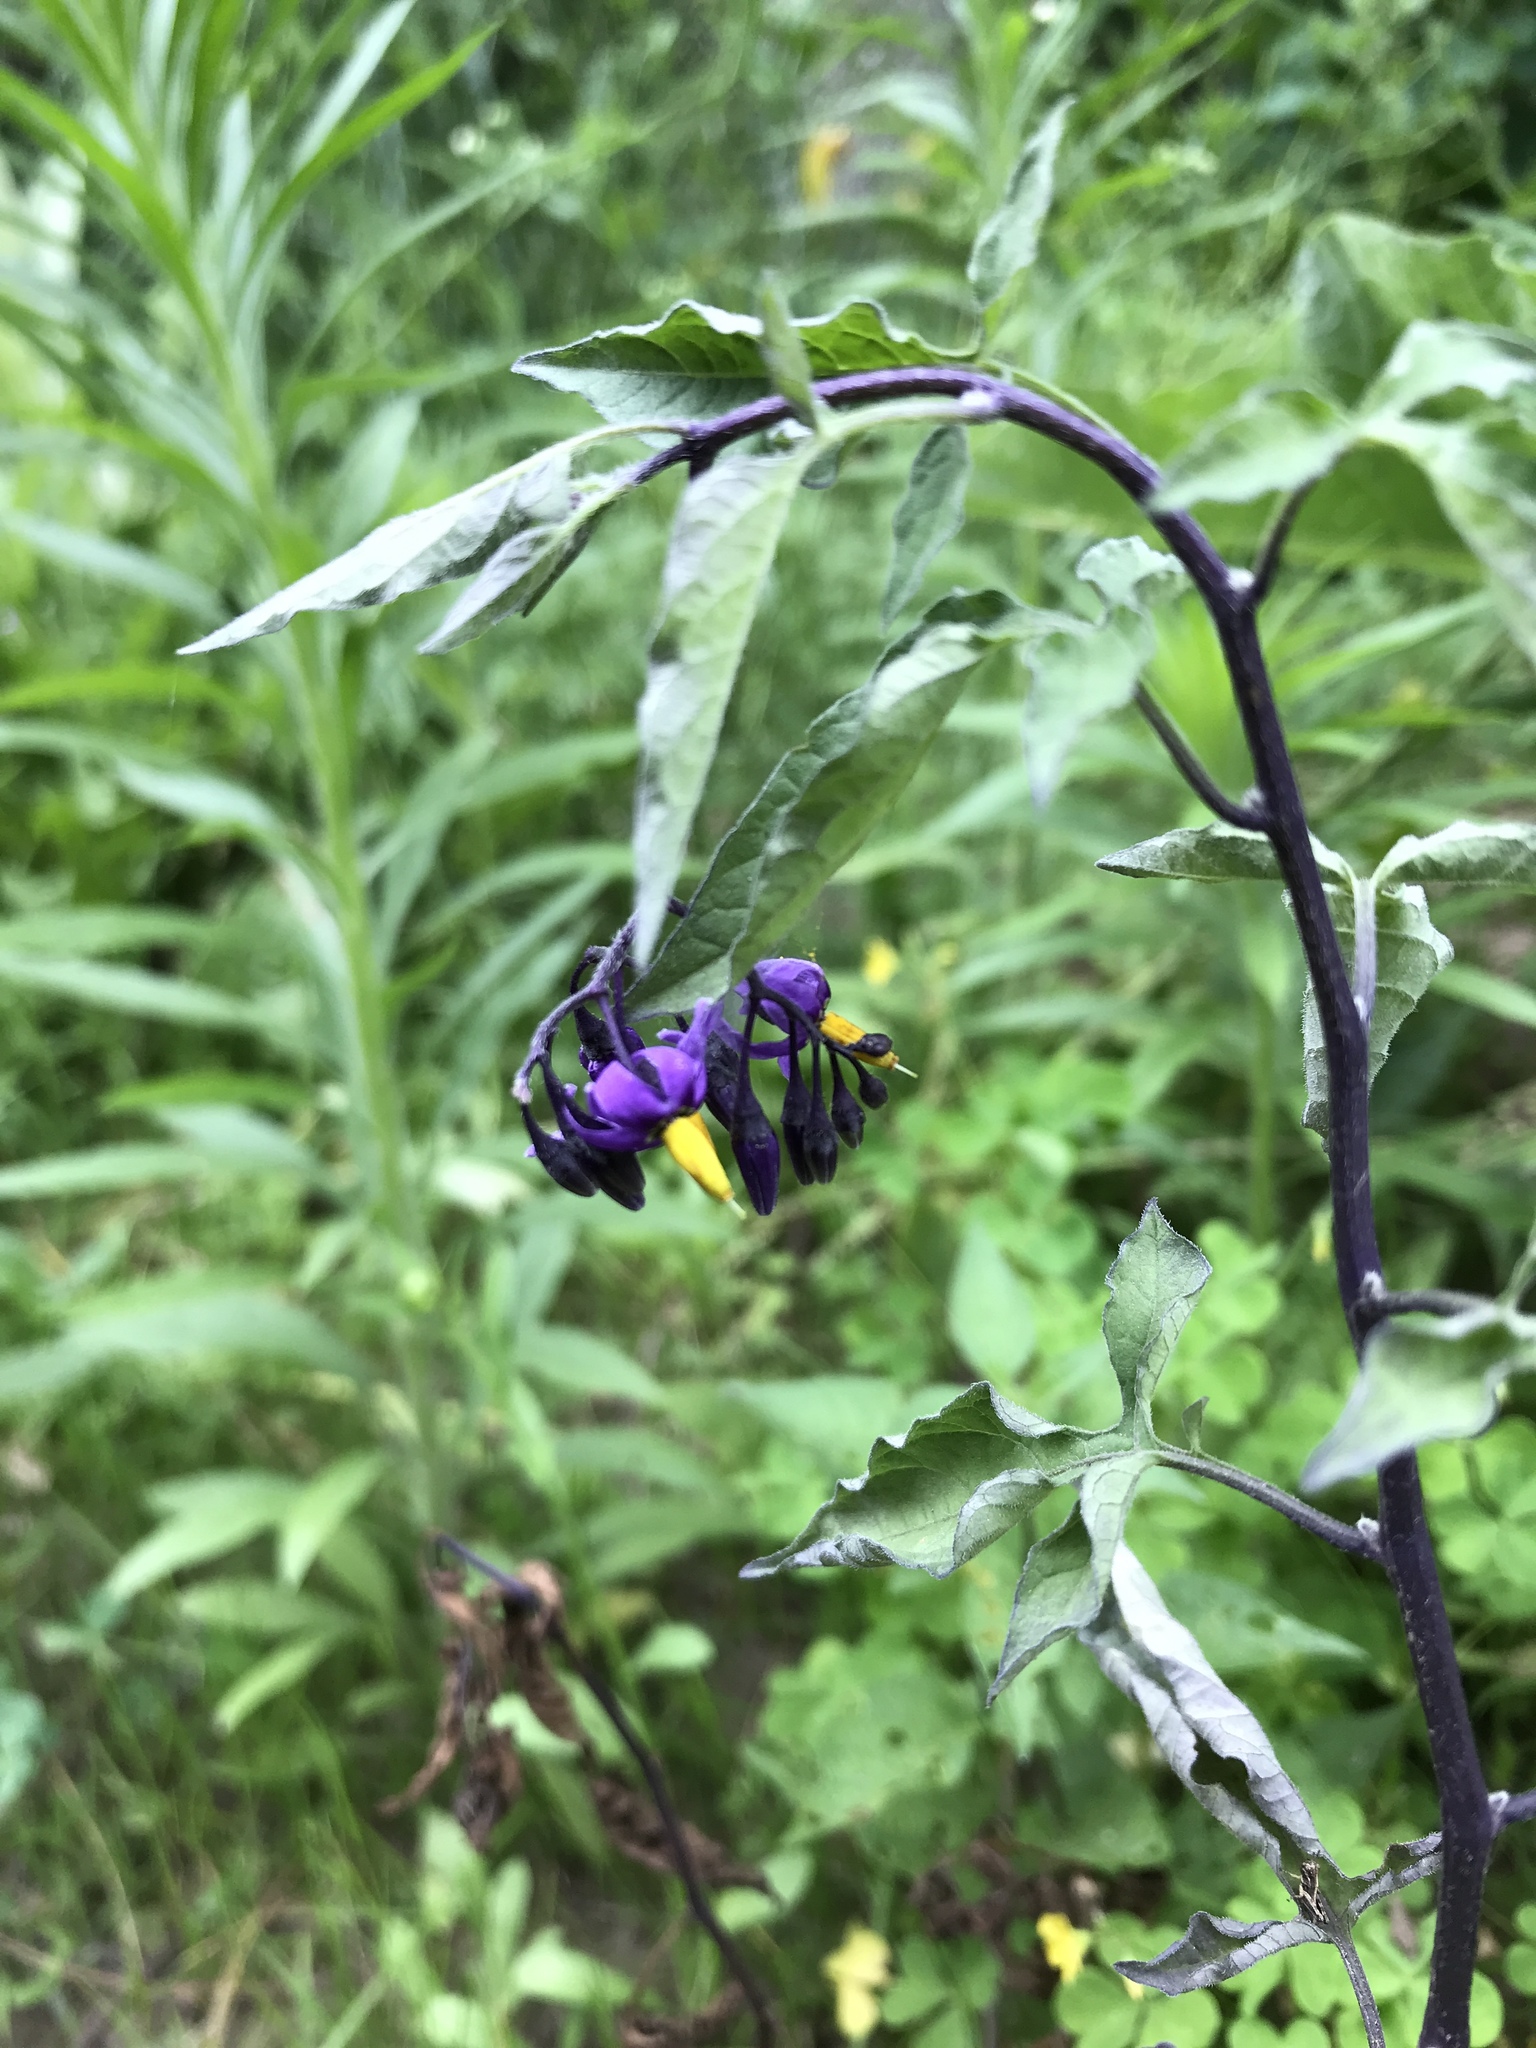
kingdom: Plantae
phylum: Tracheophyta
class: Magnoliopsida
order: Solanales
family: Solanaceae
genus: Solanum
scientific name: Solanum dulcamara
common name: Climbing nightshade
